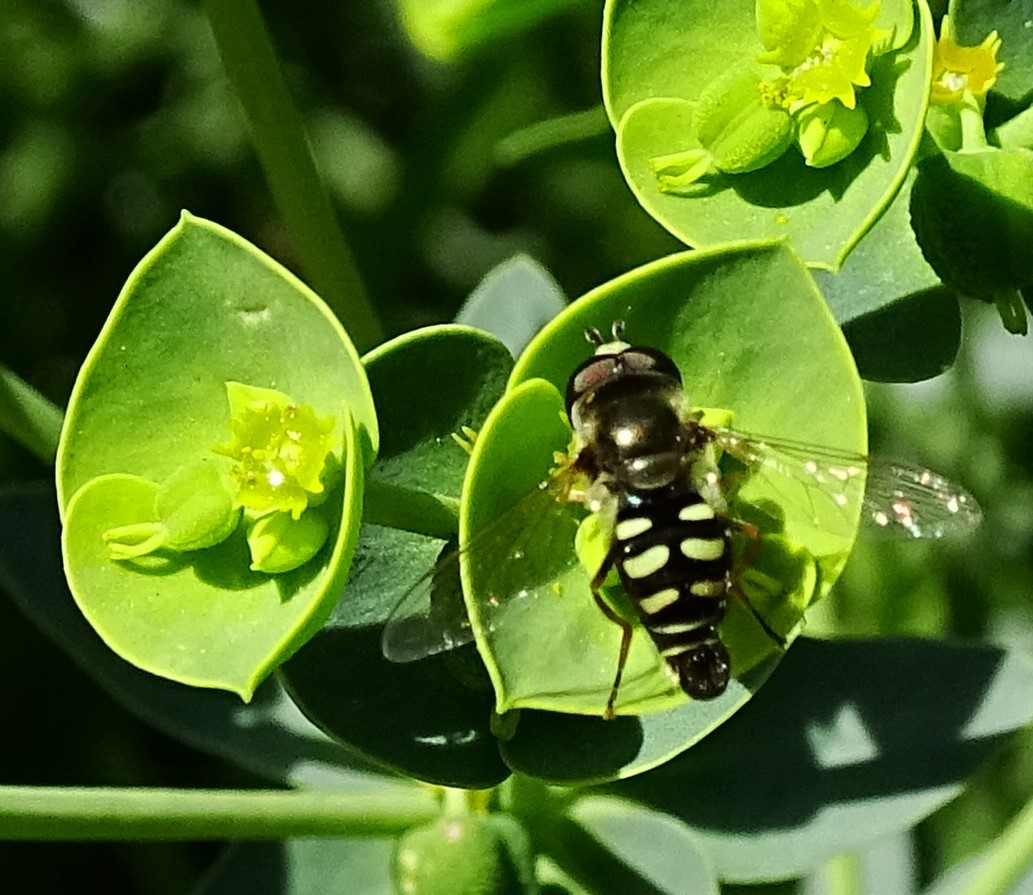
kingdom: Animalia
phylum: Arthropoda
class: Insecta
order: Diptera
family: Syrphidae
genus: Eupeodes
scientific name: Eupeodes volucris
